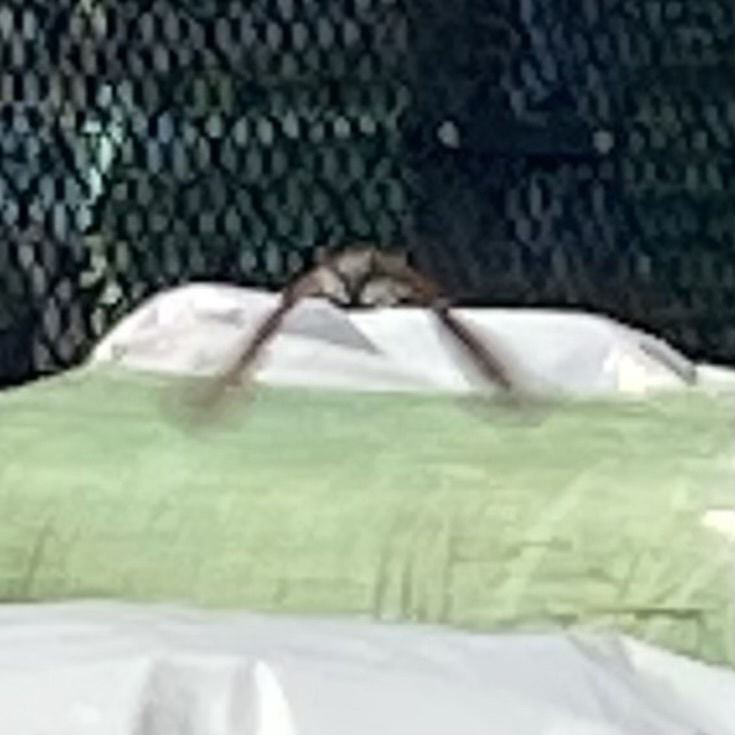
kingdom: Animalia
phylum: Chordata
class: Aves
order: Passeriformes
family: Passeridae
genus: Passer
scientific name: Passer domesticus
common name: House sparrow
